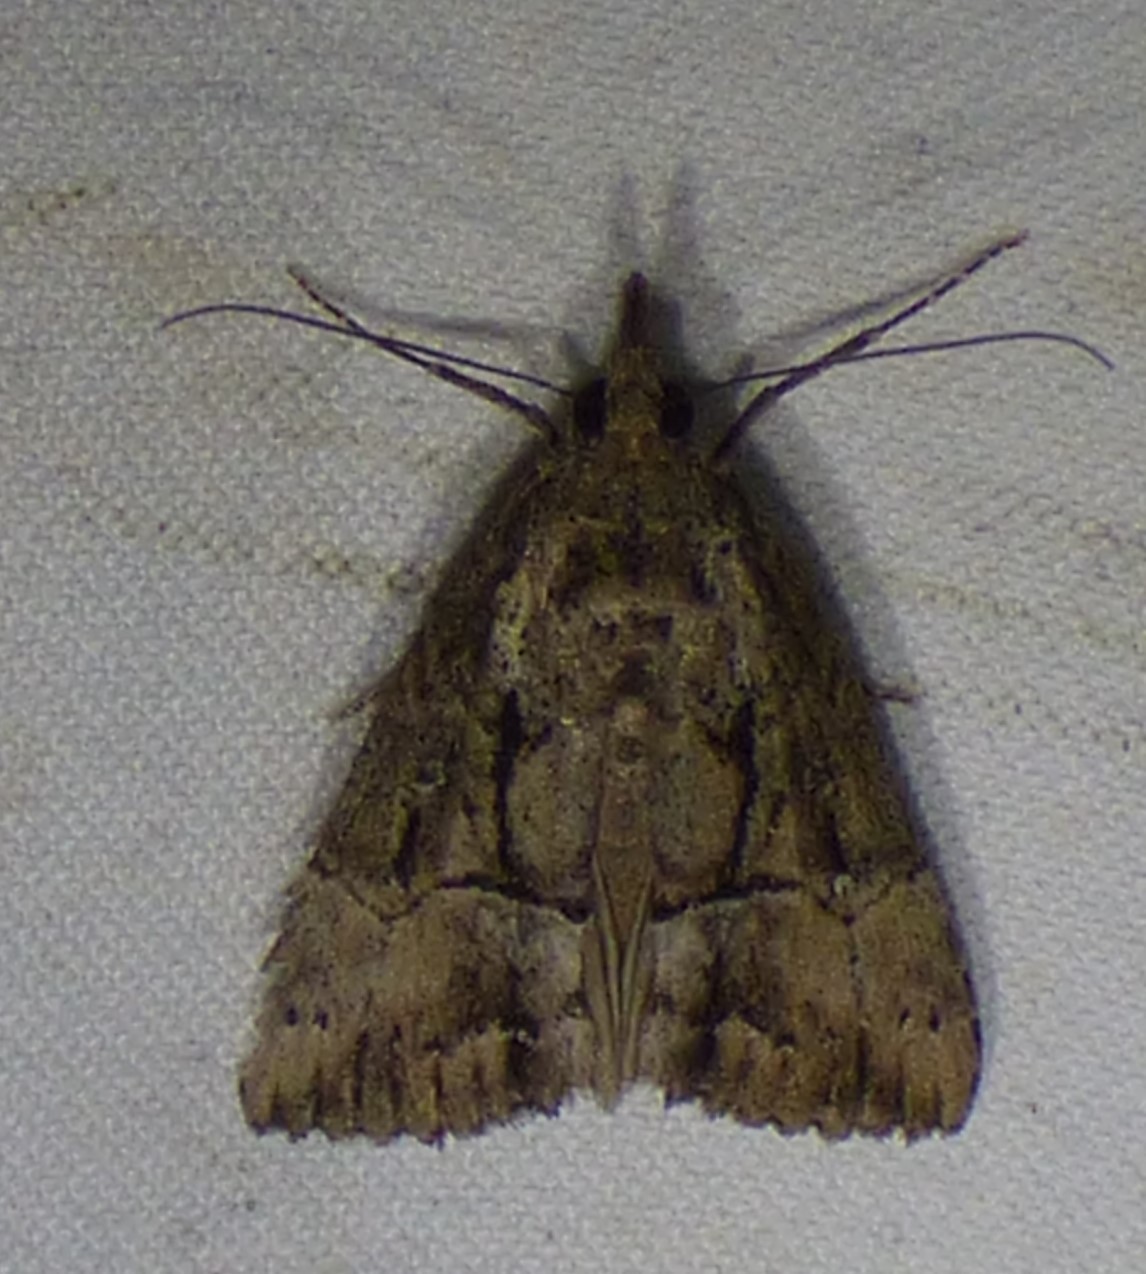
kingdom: Animalia
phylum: Arthropoda
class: Insecta
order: Lepidoptera
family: Erebidae
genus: Hypena
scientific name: Hypena scabra
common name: Green cloverworm
